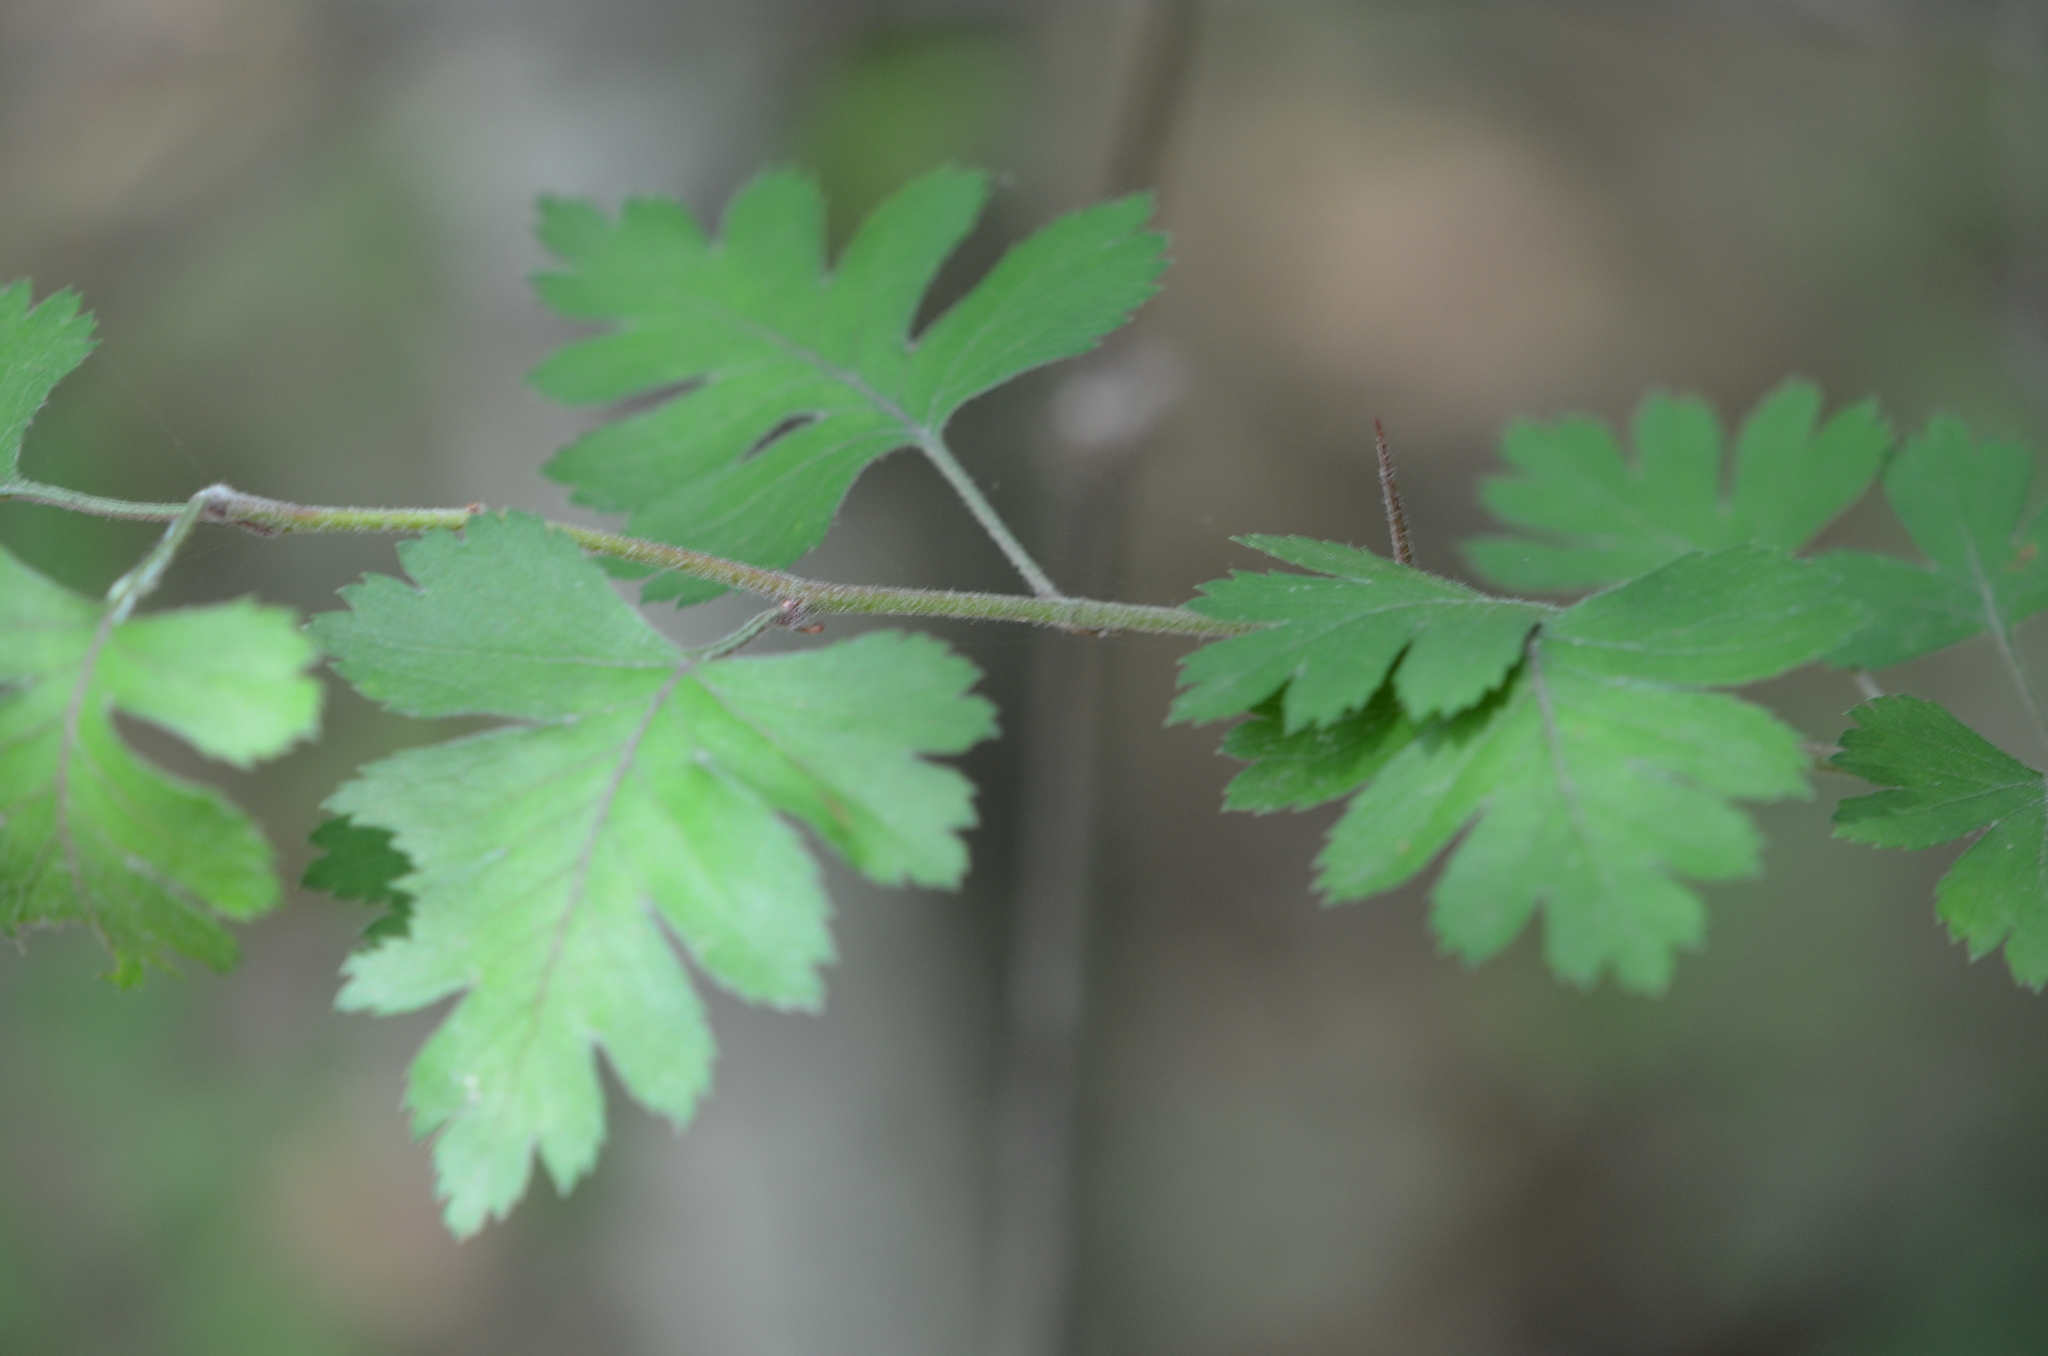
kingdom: Plantae
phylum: Tracheophyta
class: Magnoliopsida
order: Rosales
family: Rosaceae
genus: Crataegus
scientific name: Crataegus marshallii
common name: Parsley-hawthorn
